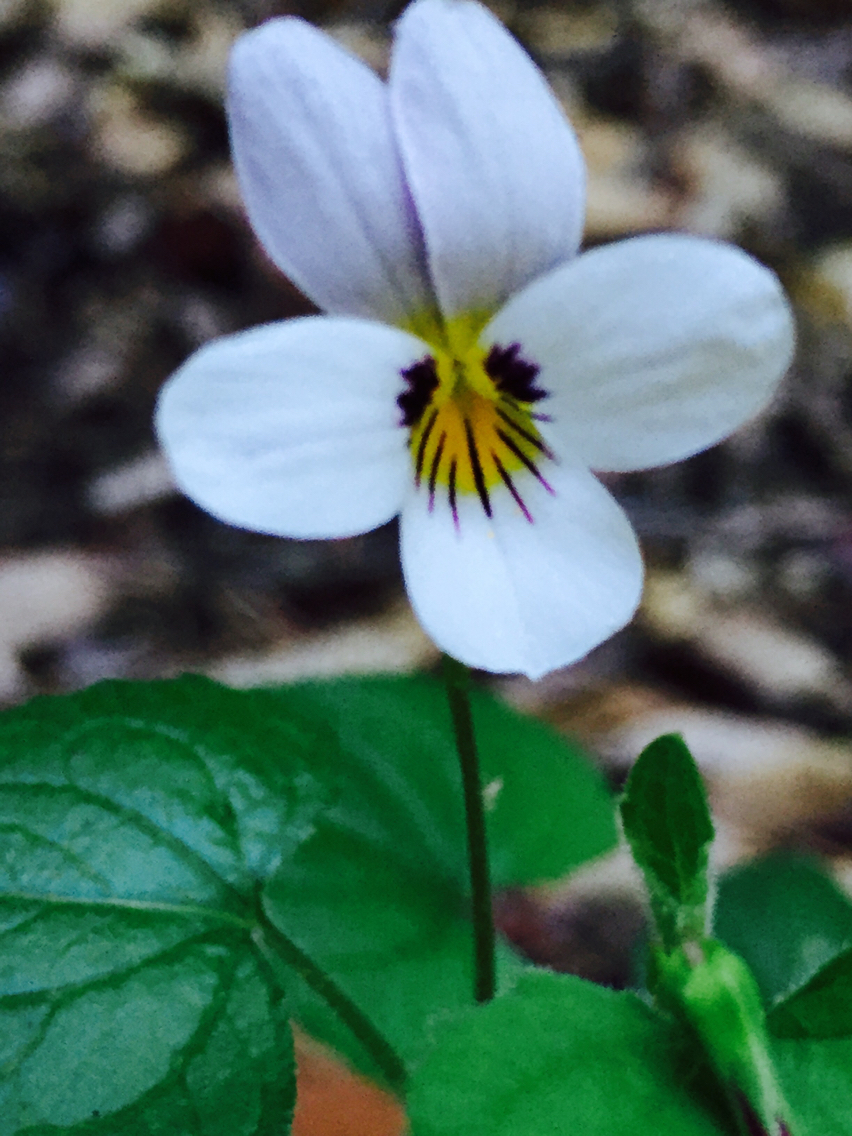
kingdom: Plantae
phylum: Tracheophyta
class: Magnoliopsida
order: Malpighiales
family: Violaceae
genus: Viola
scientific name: Viola ocellata
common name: Western heart's ease
